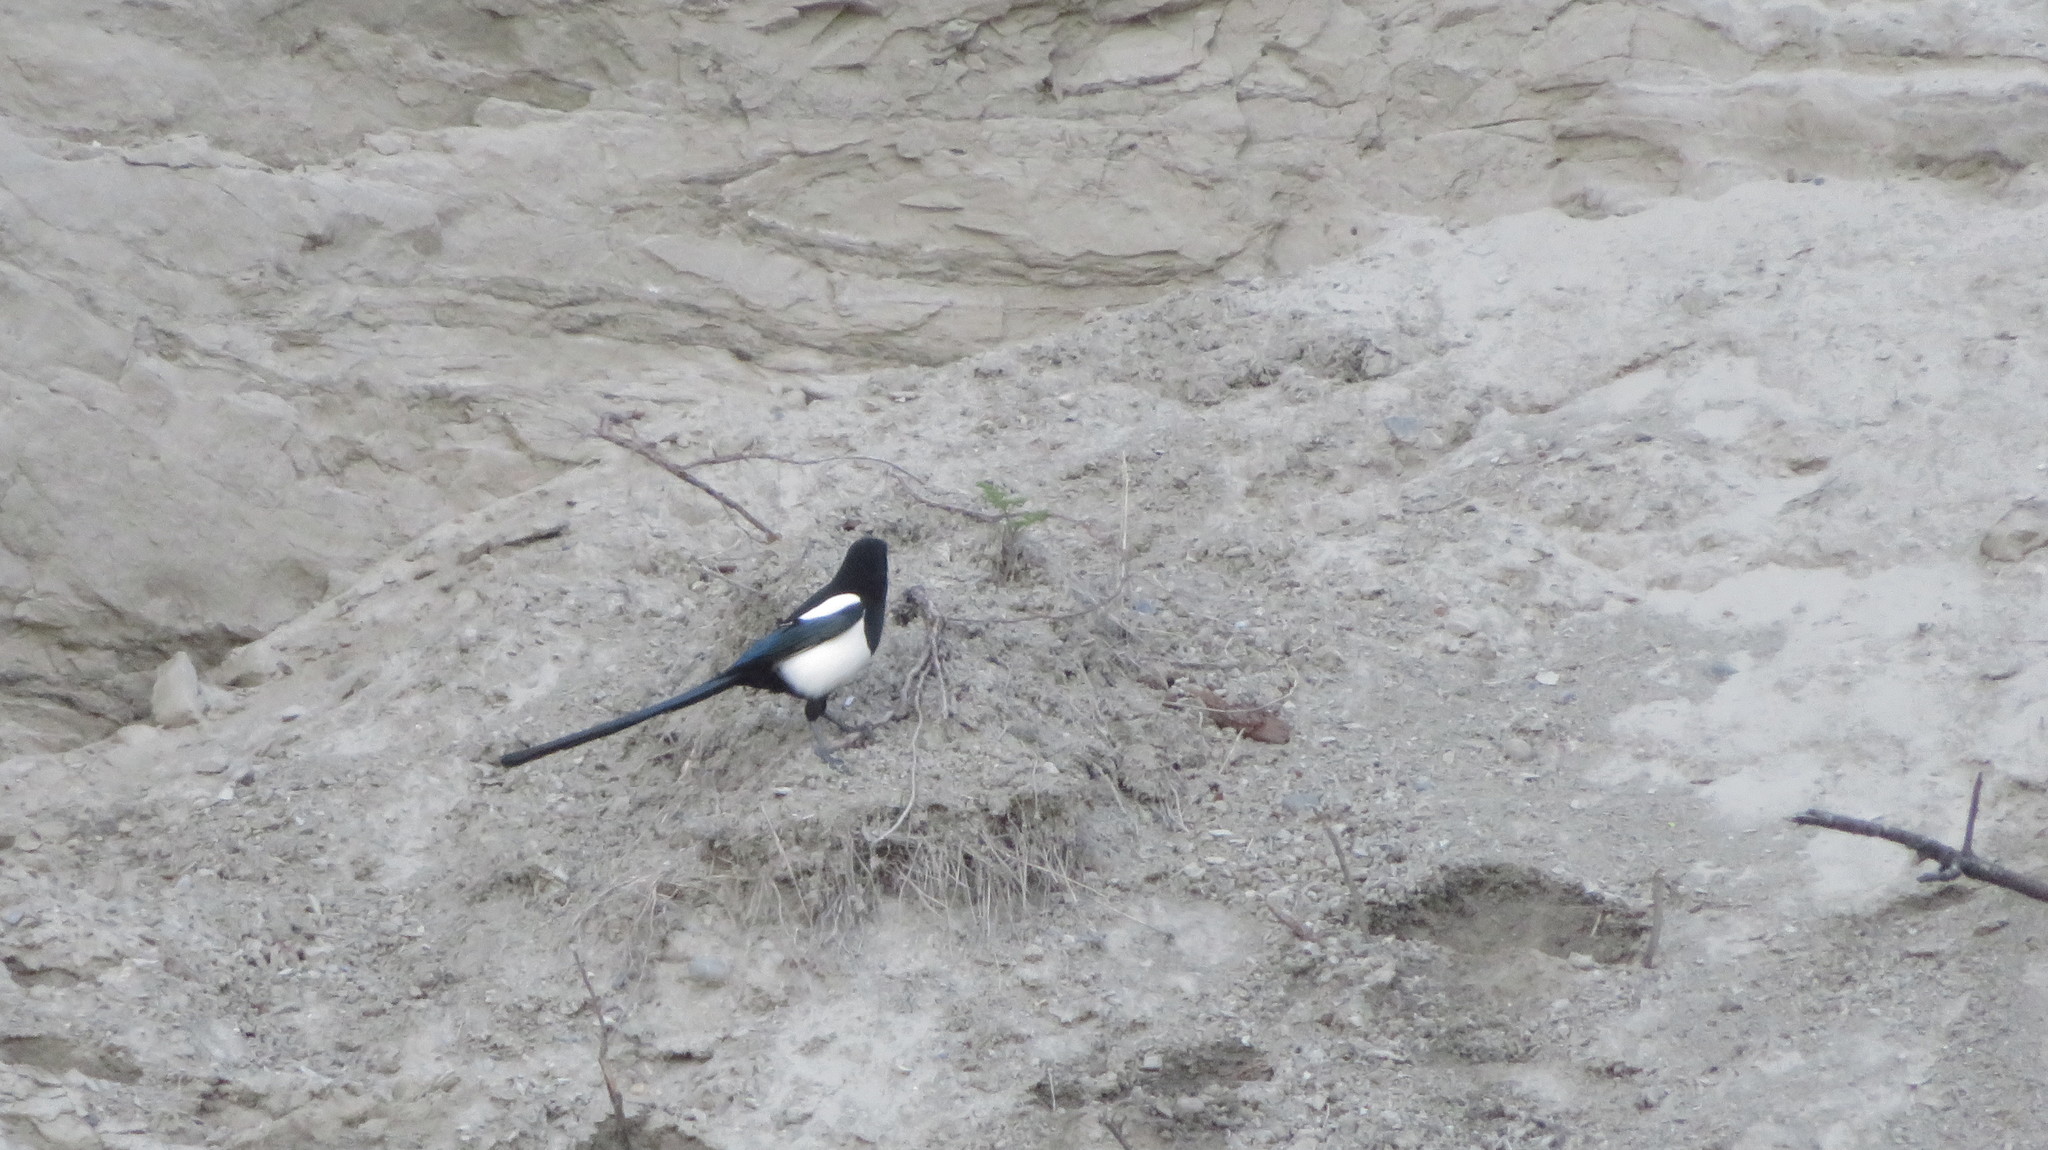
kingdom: Animalia
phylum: Chordata
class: Aves
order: Passeriformes
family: Corvidae
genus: Pica
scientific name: Pica hudsonia
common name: Black-billed magpie
